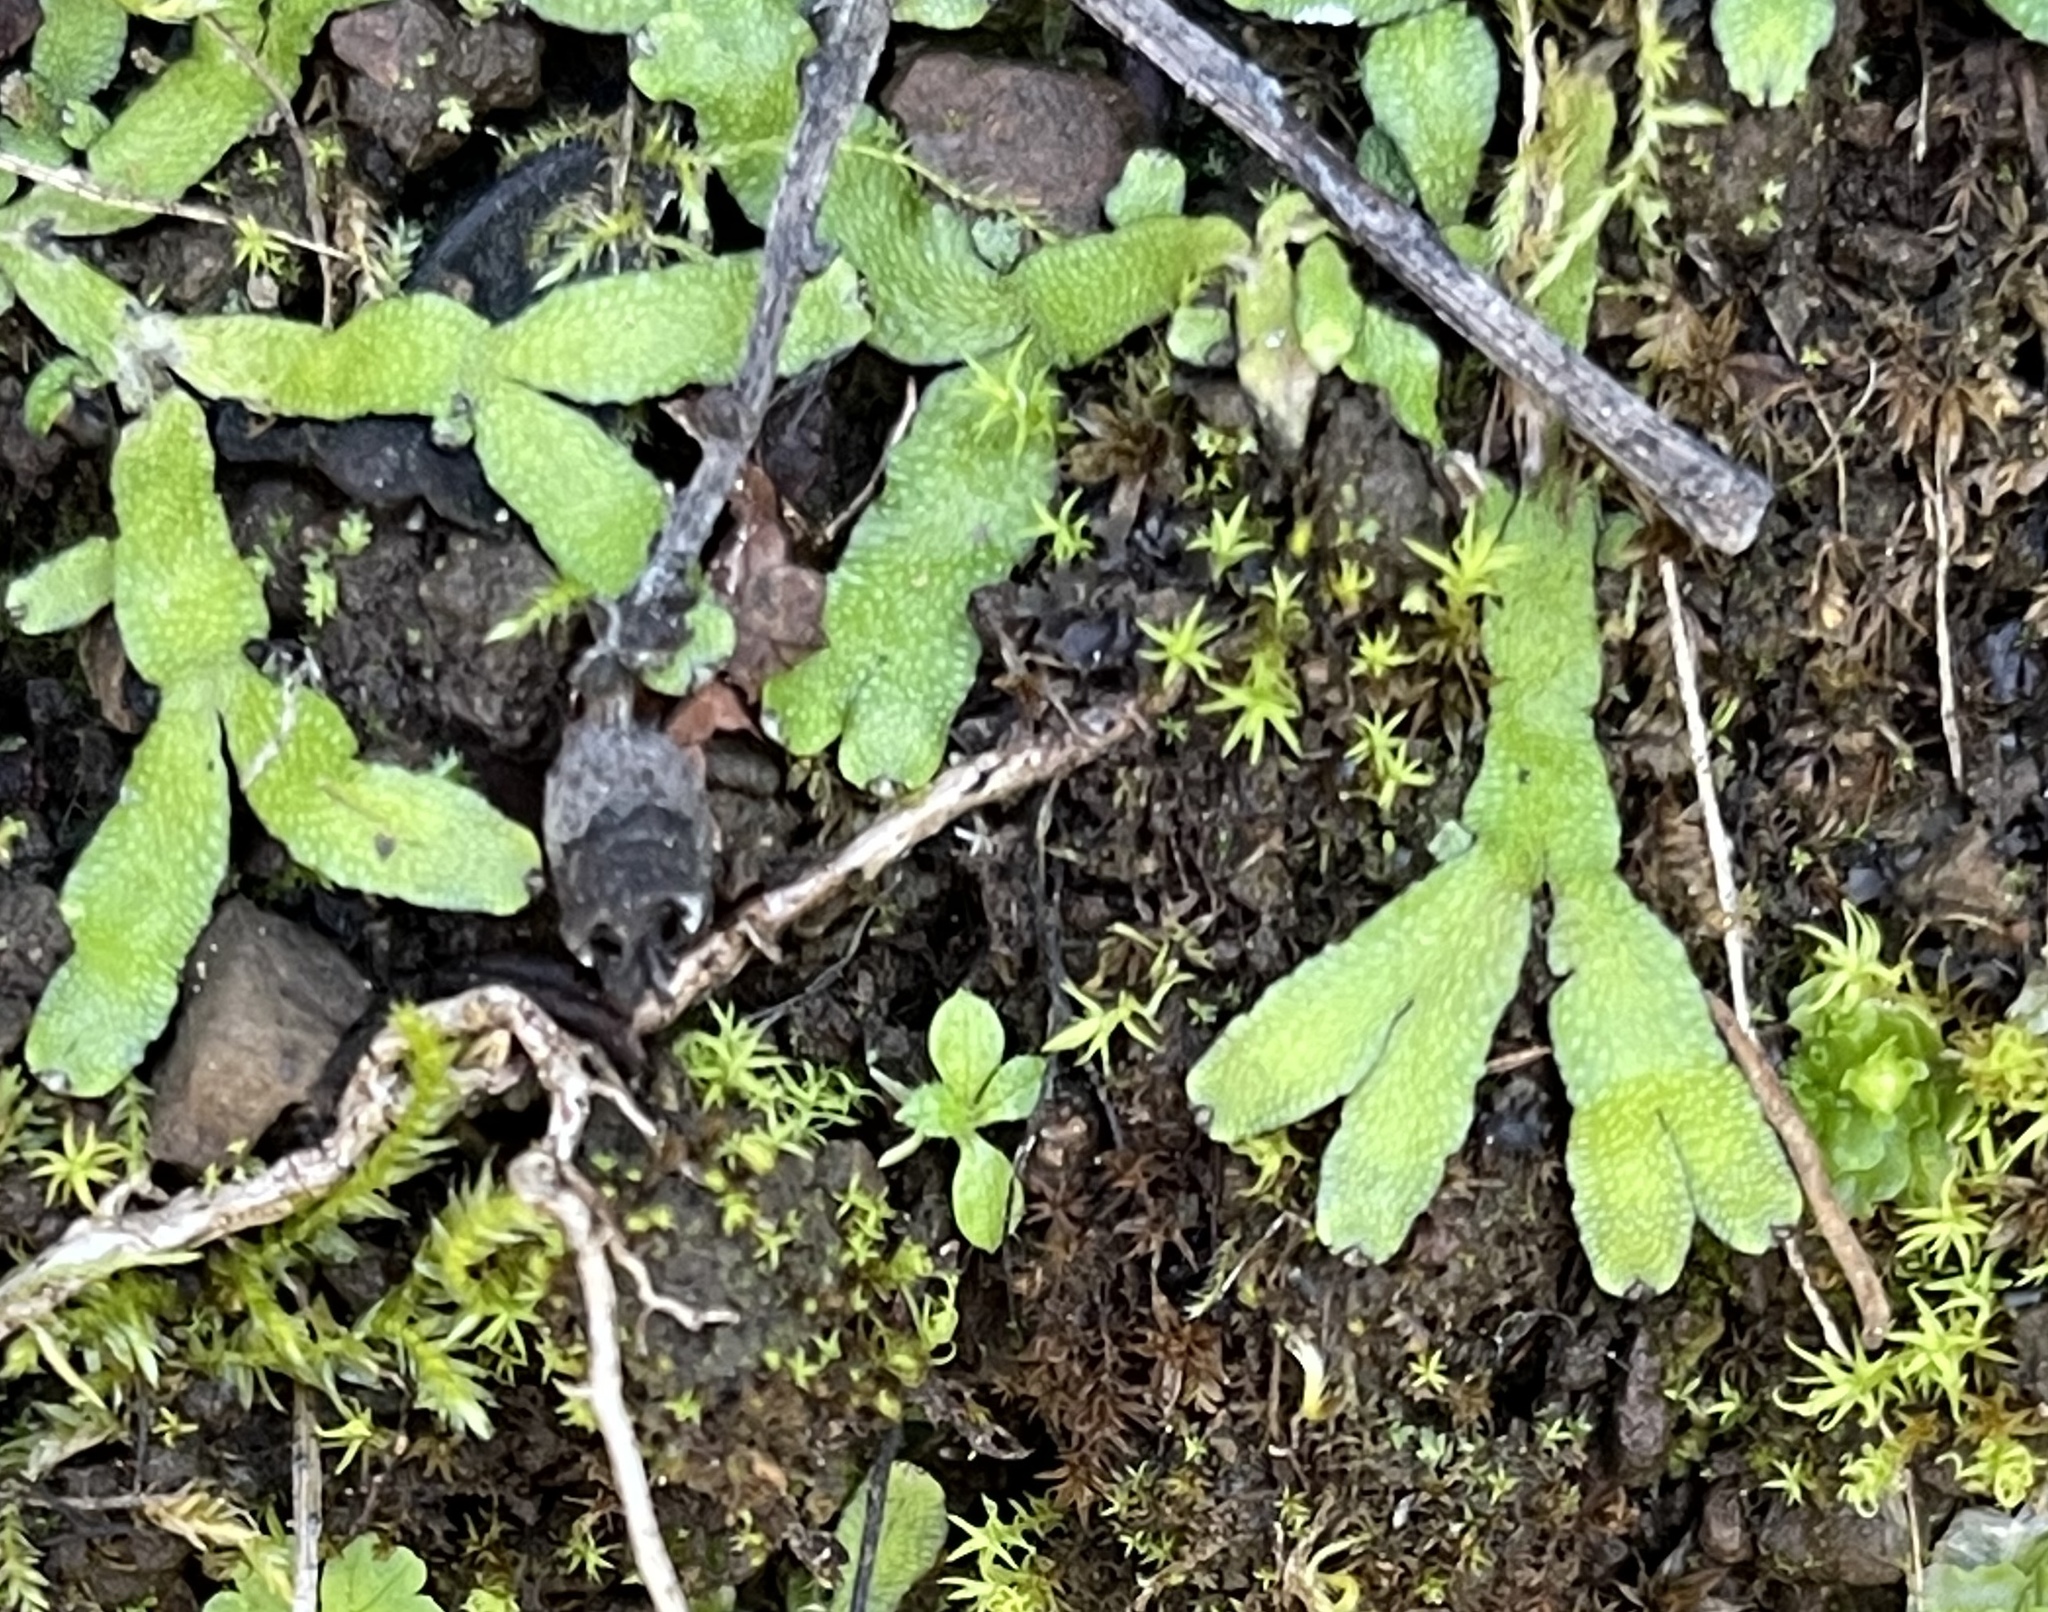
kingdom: Plantae
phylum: Marchantiophyta
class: Marchantiopsida
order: Marchantiales
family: Targioniaceae
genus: Targionia
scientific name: Targionia hypophylla
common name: Orobus-seed liverwort
